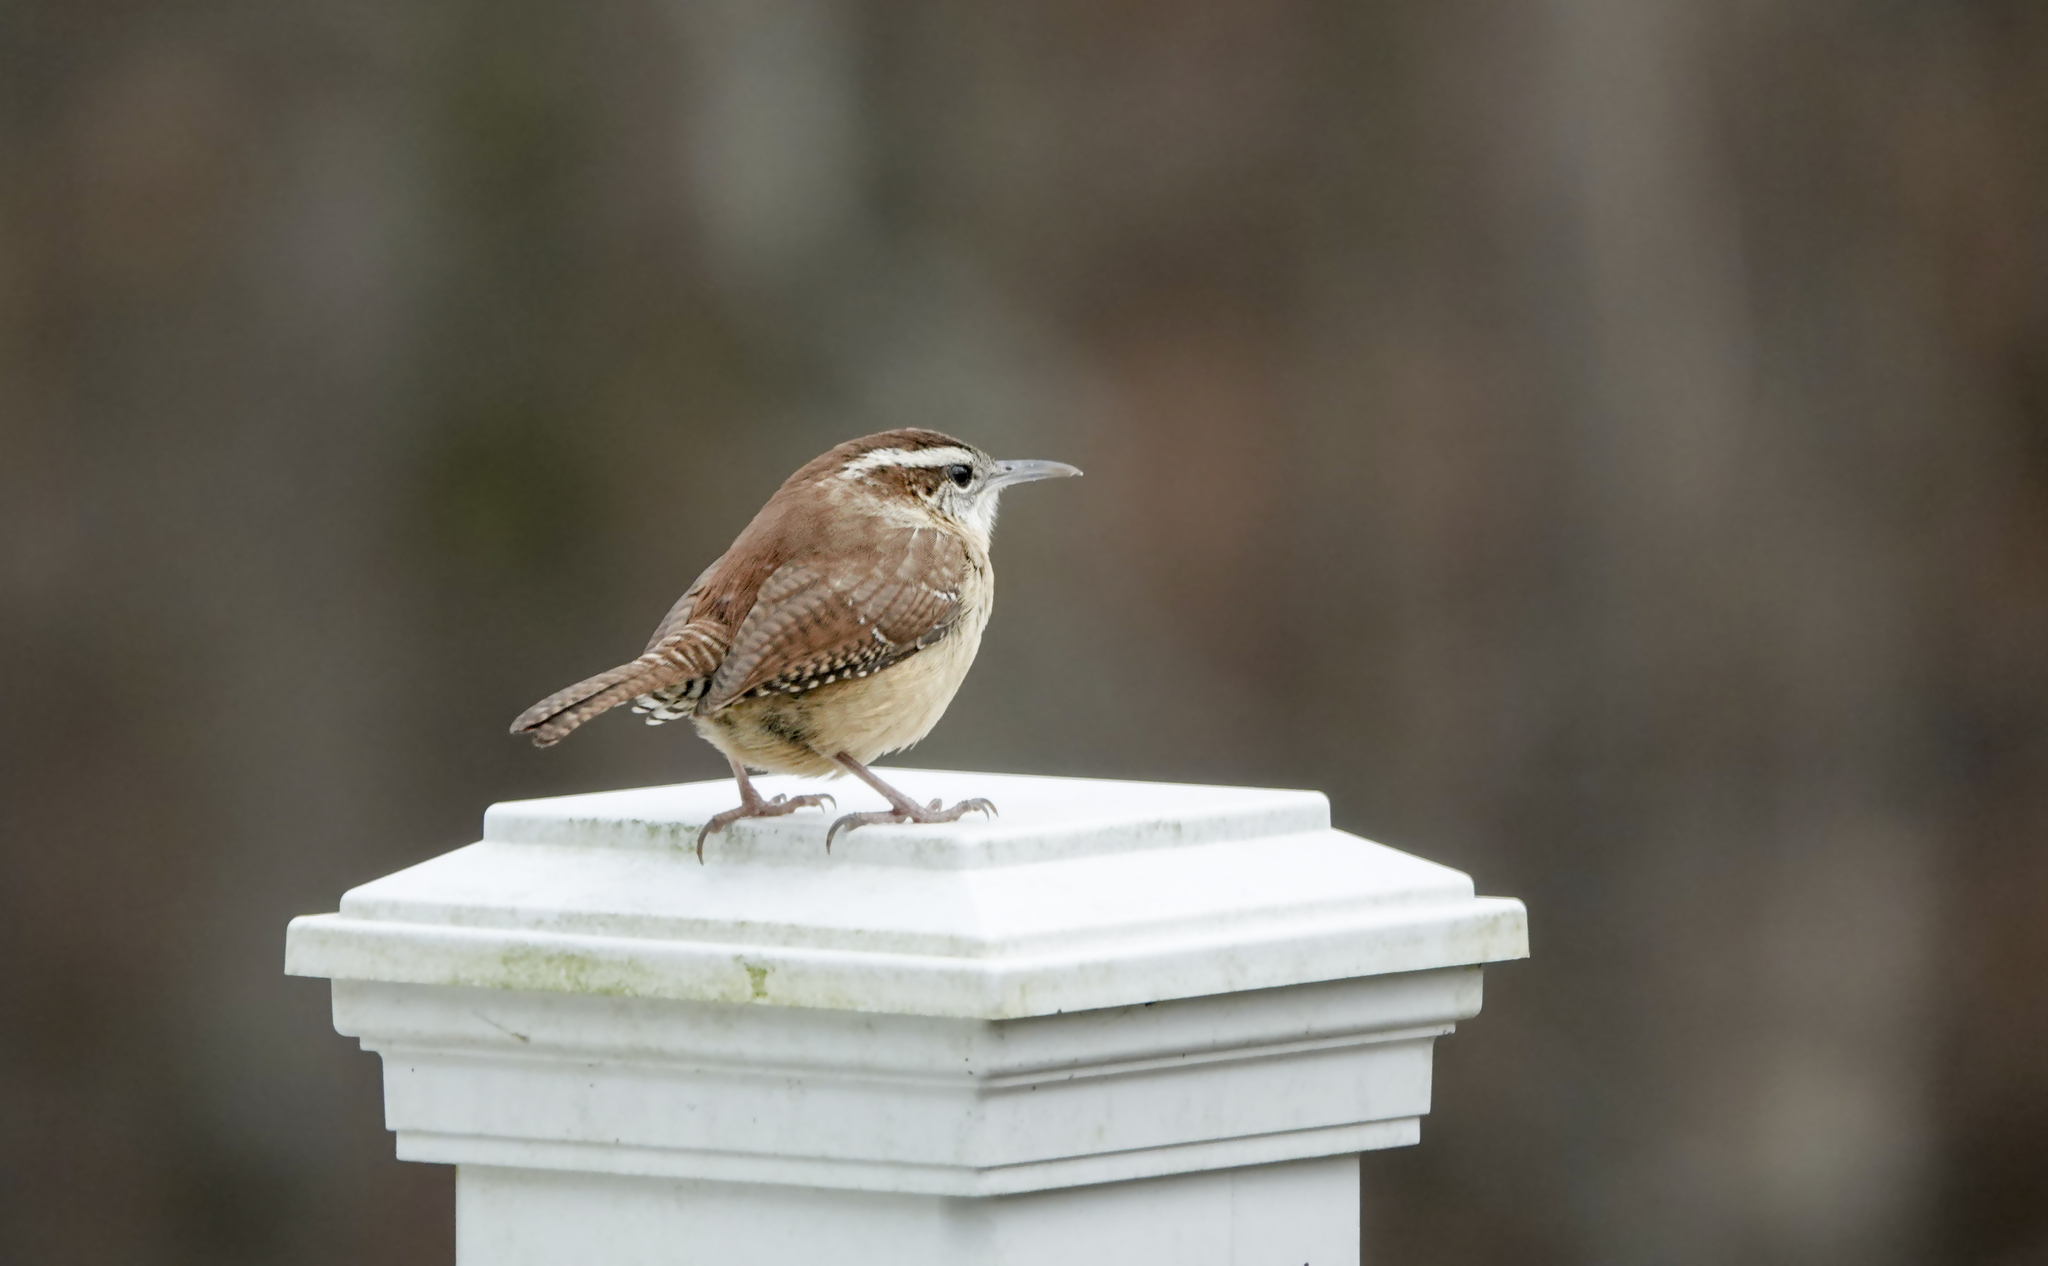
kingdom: Animalia
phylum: Chordata
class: Aves
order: Passeriformes
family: Troglodytidae
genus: Thryothorus
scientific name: Thryothorus ludovicianus
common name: Carolina wren
